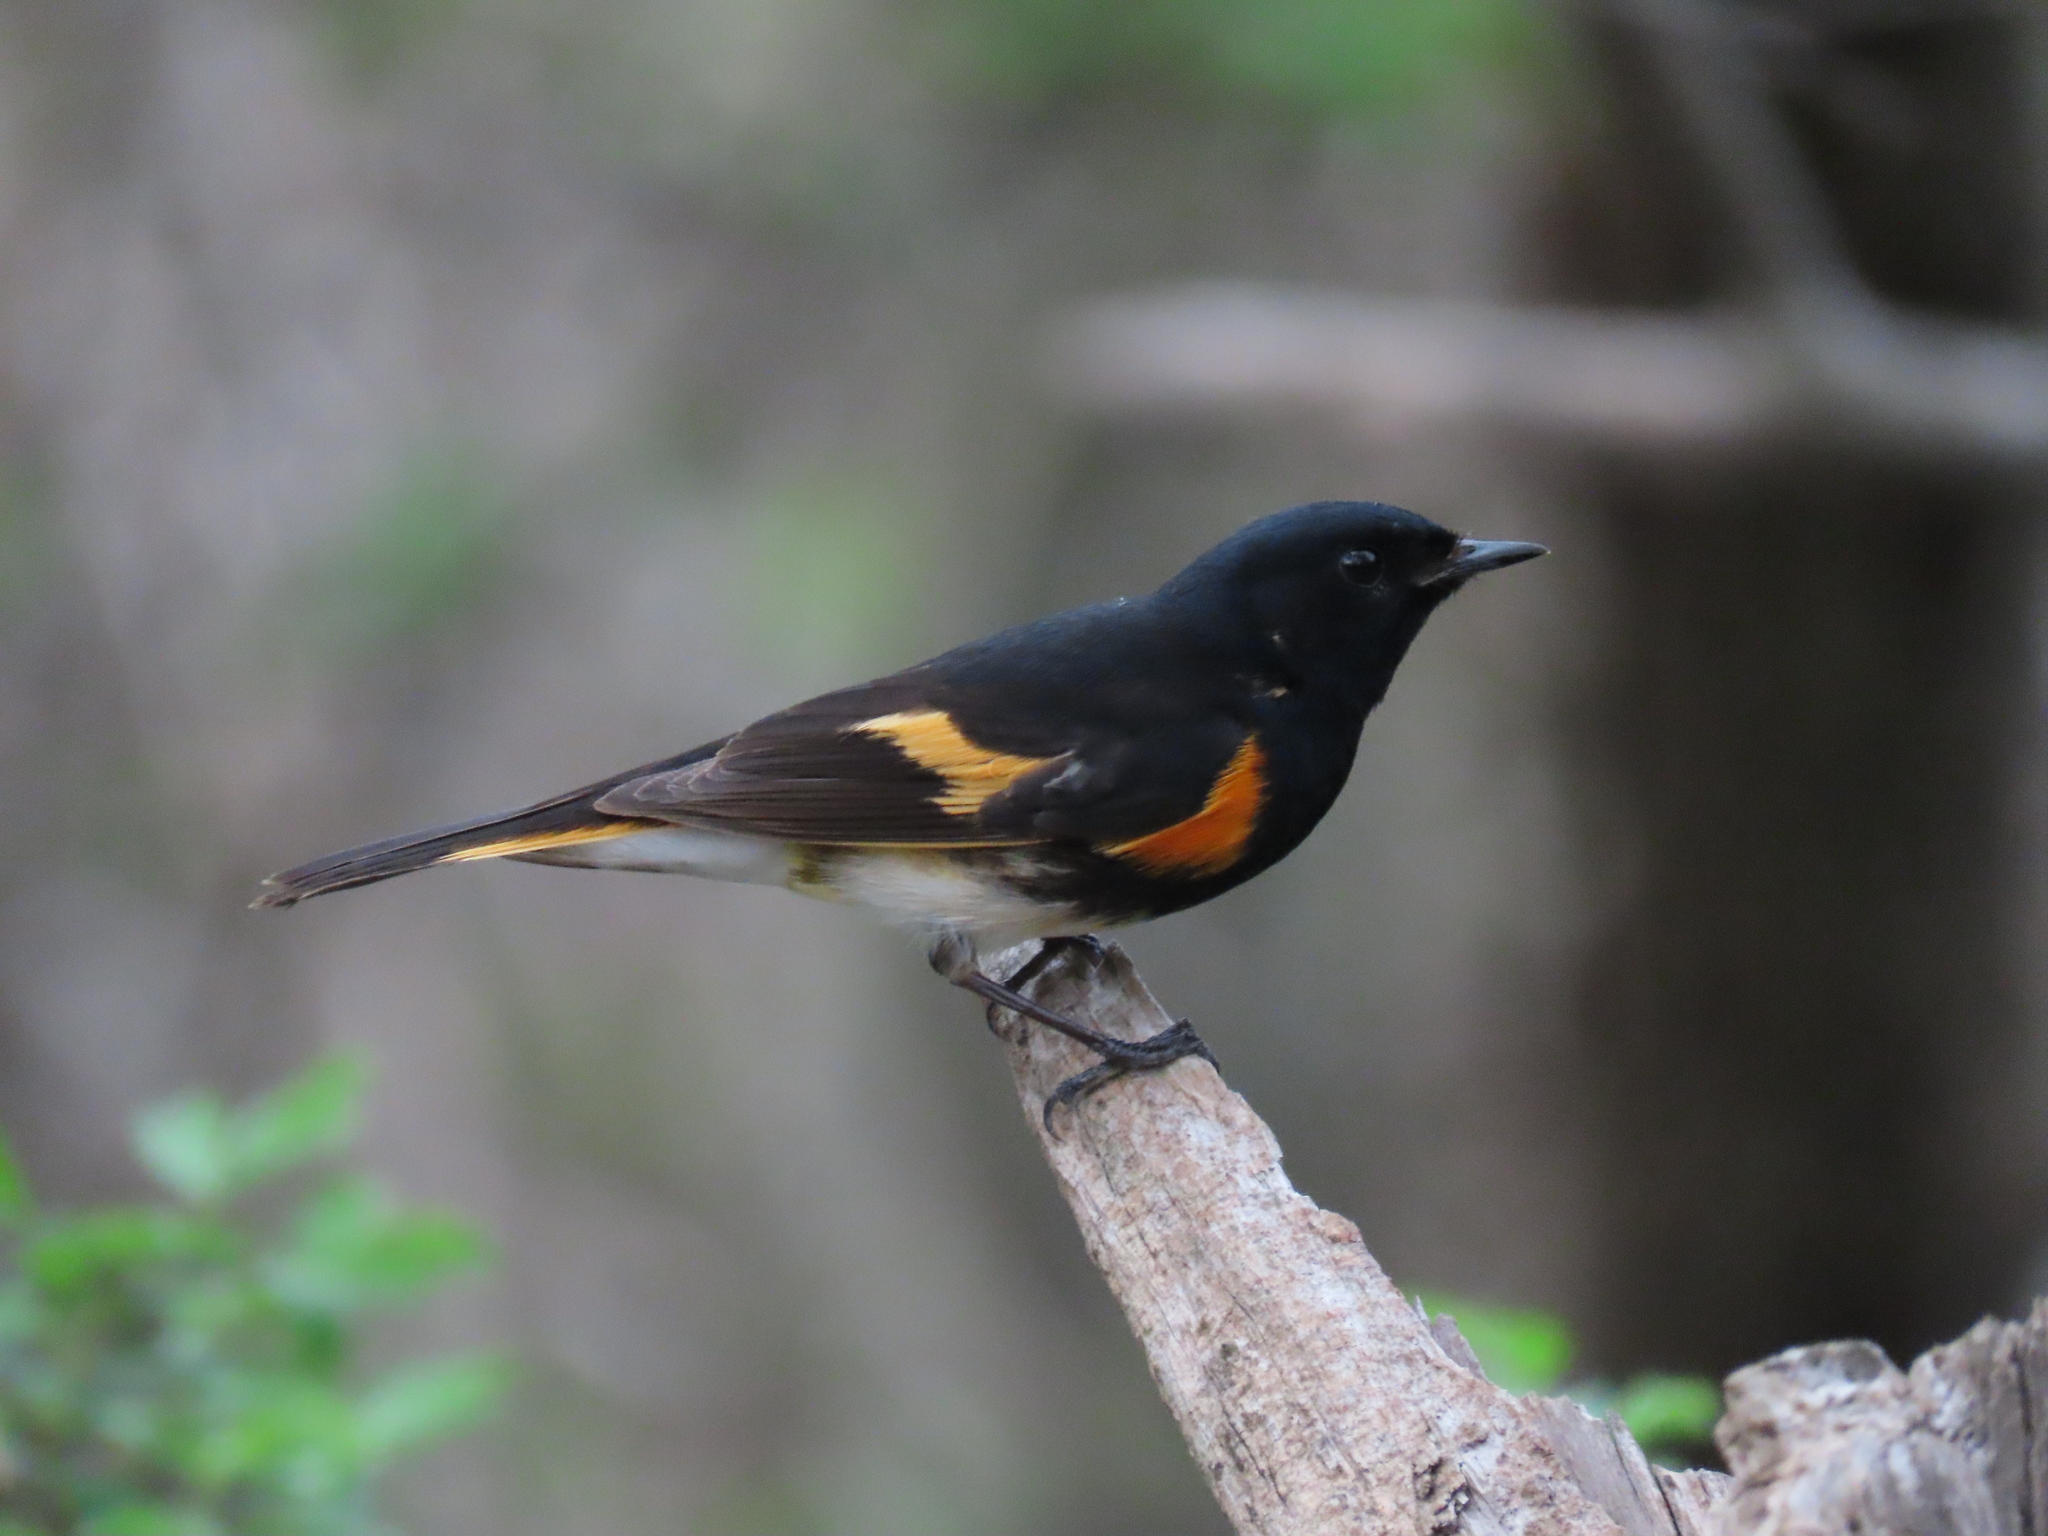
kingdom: Animalia
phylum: Chordata
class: Aves
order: Passeriformes
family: Parulidae
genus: Setophaga
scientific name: Setophaga ruticilla
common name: American redstart
